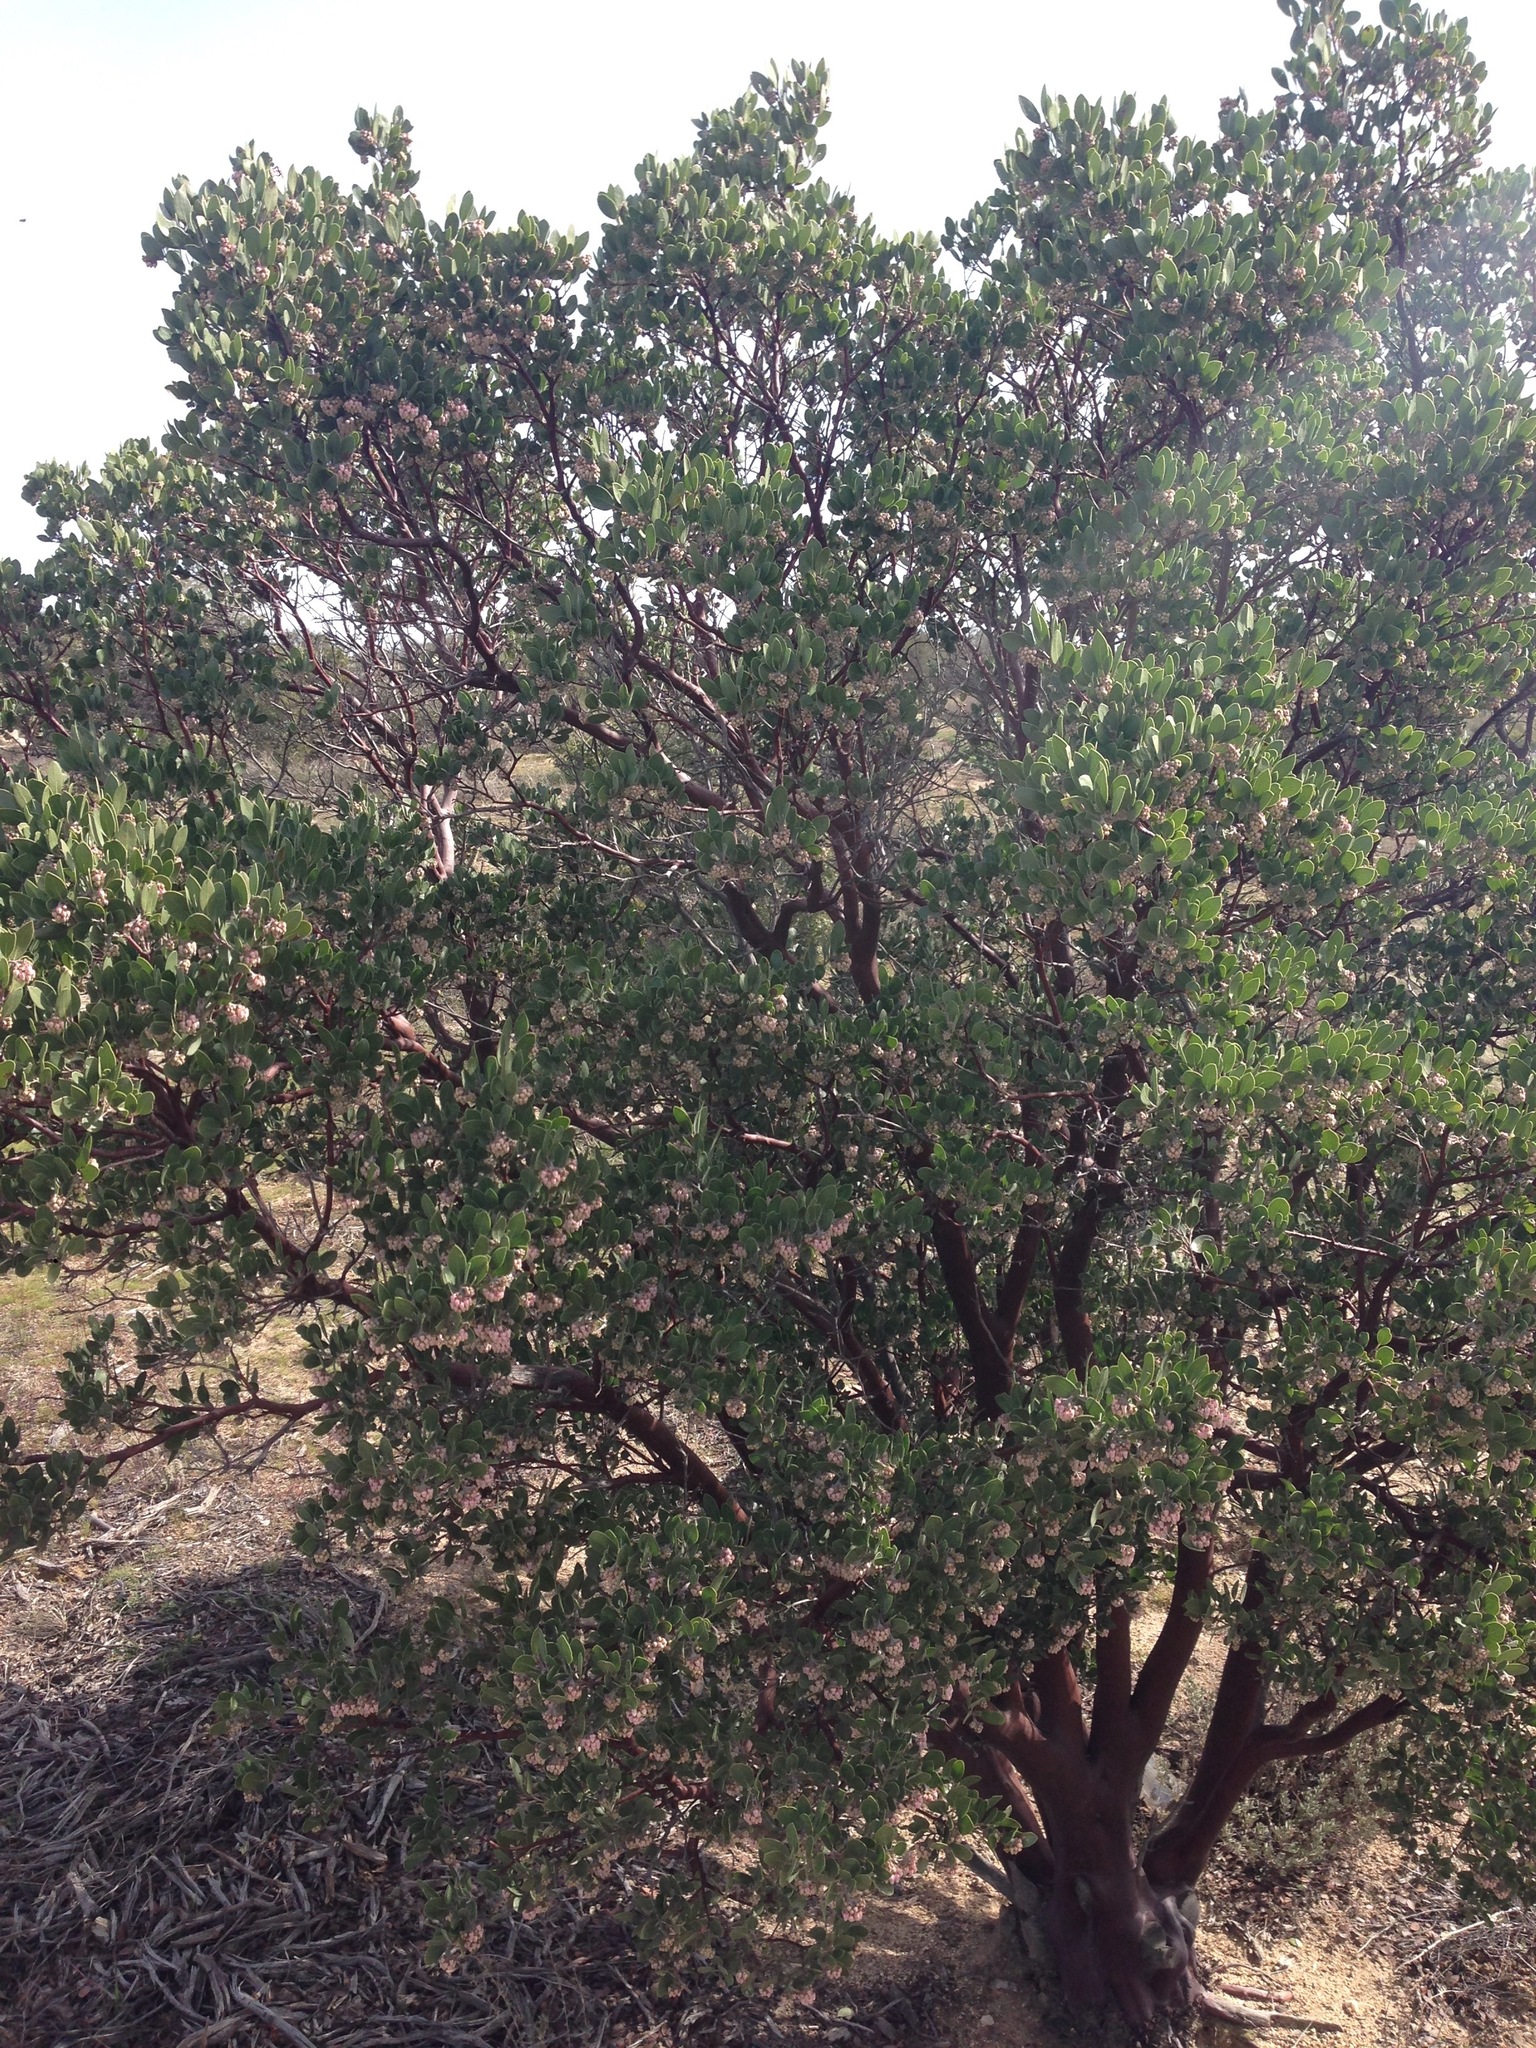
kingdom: Plantae
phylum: Tracheophyta
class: Magnoliopsida
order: Ericales
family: Ericaceae
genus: Arctostaphylos
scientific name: Arctostaphylos pungens
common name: Mexican manzanita
